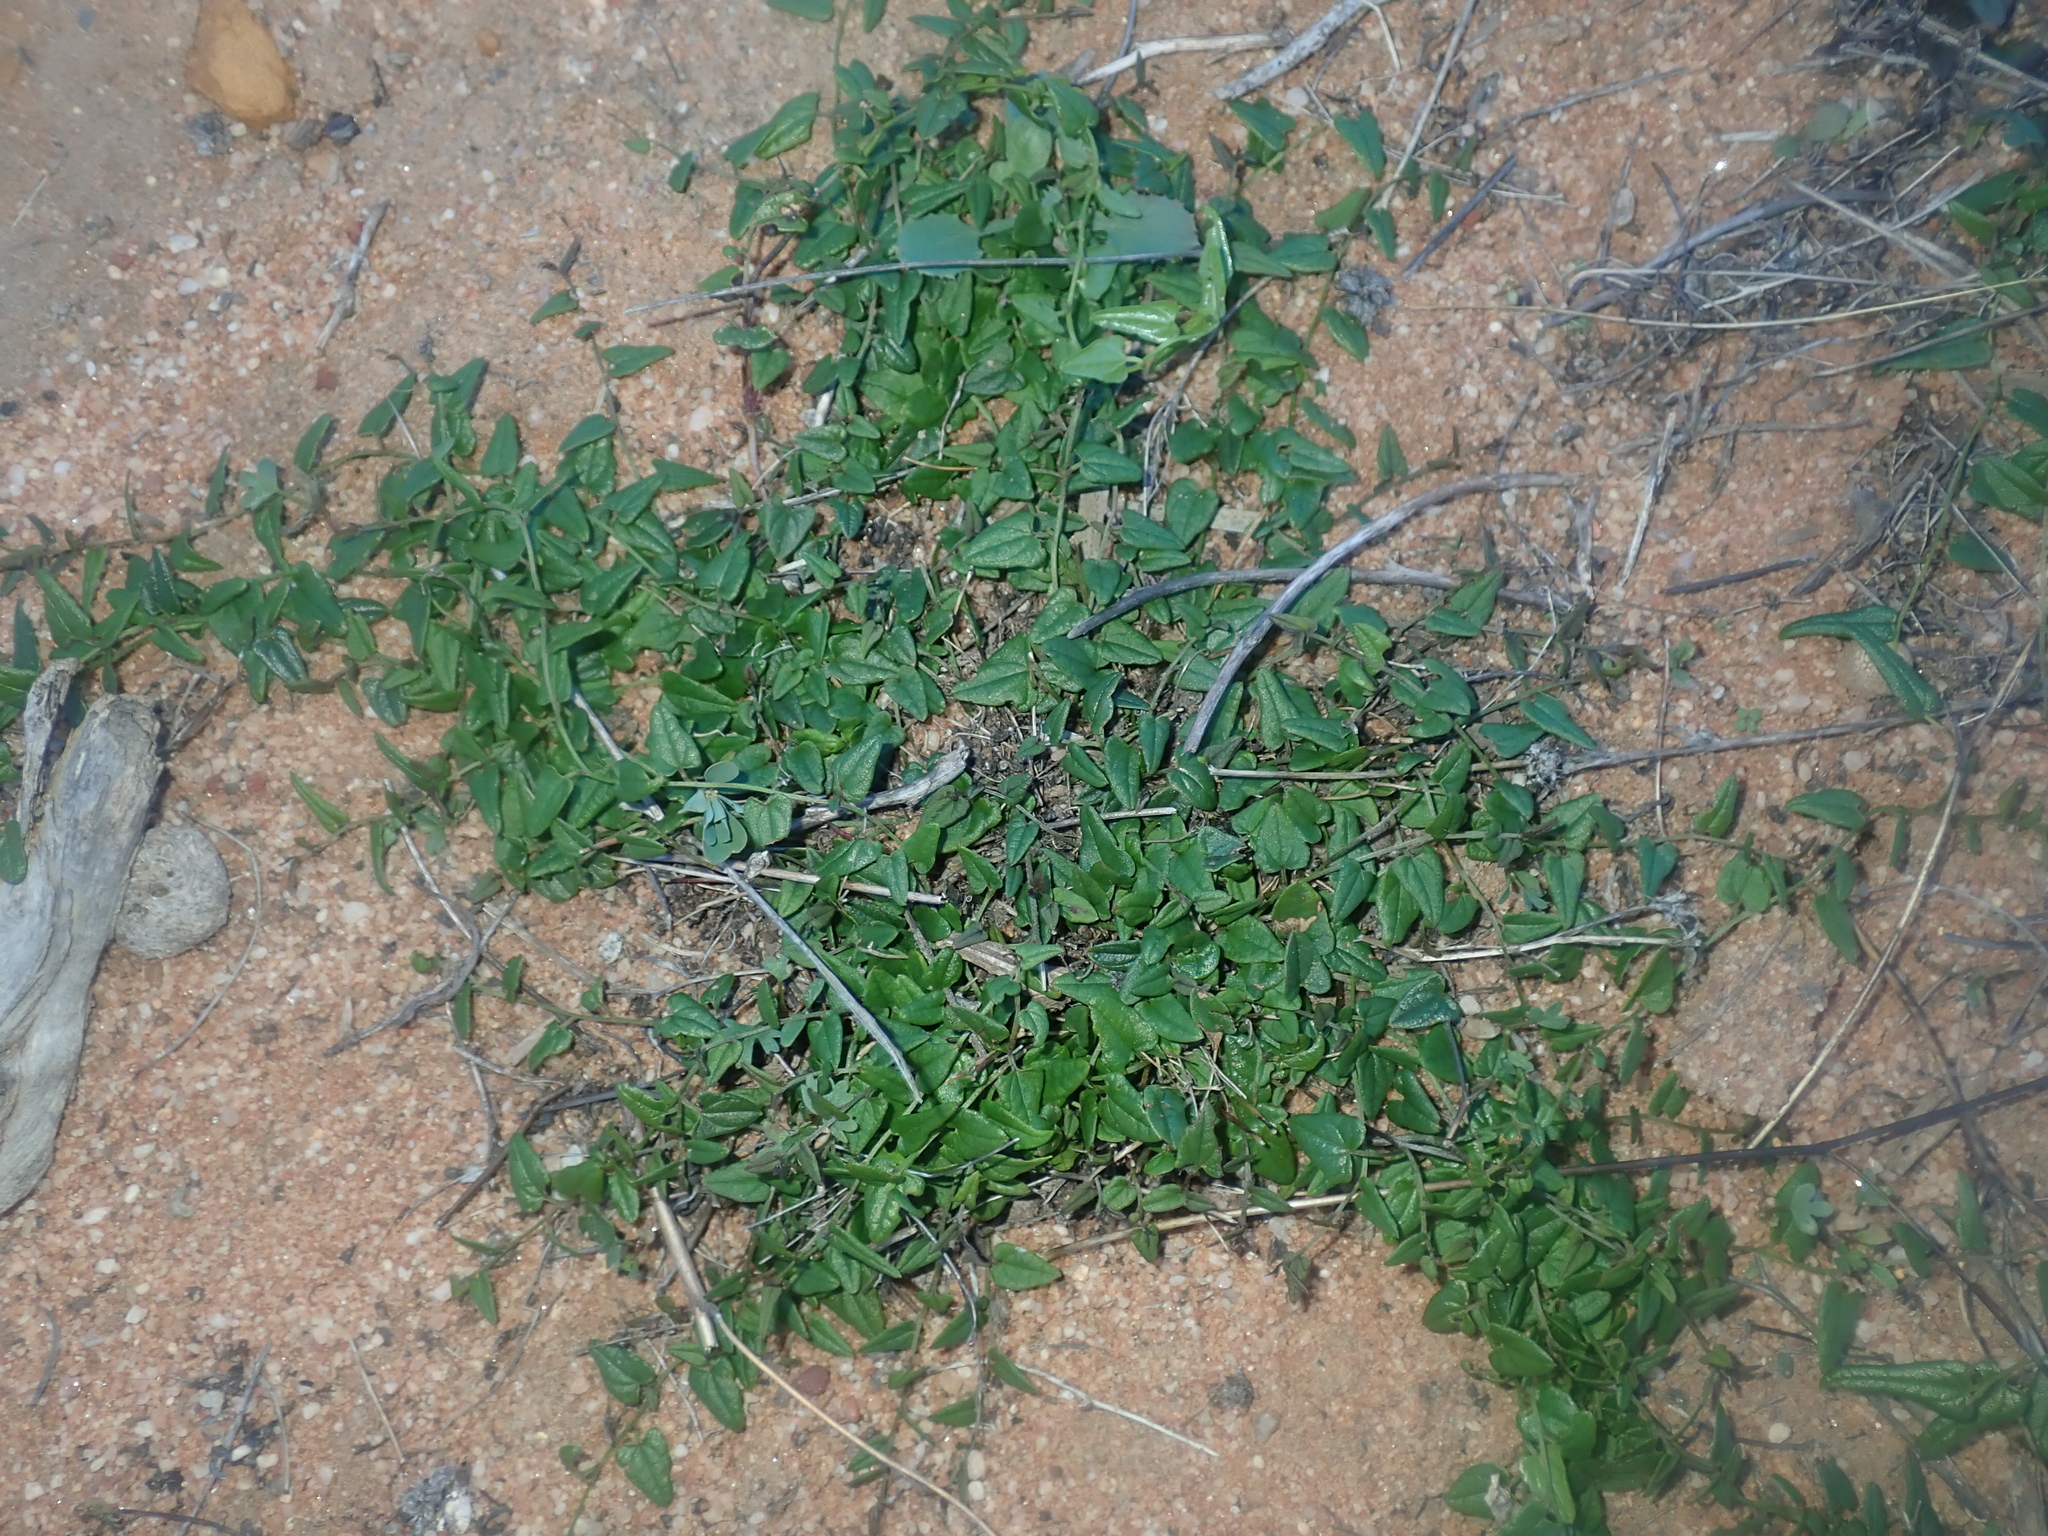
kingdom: Plantae
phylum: Tracheophyta
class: Liliopsida
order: Dioscoreales
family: Dioscoreaceae
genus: Dioscorea
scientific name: Dioscorea hastifolia
